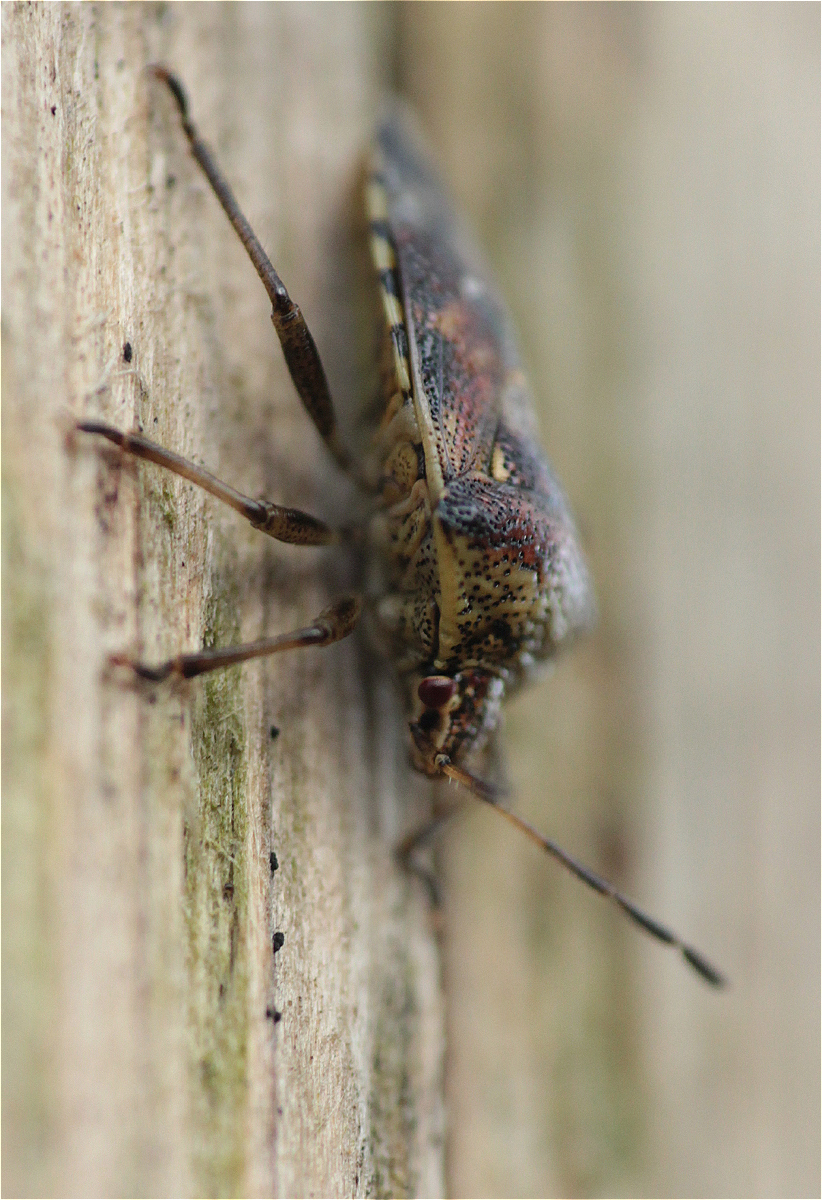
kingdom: Animalia
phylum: Arthropoda
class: Insecta
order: Hemiptera
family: Acanthosomatidae
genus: Elasmucha
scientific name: Elasmucha grisea
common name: Parent bug
